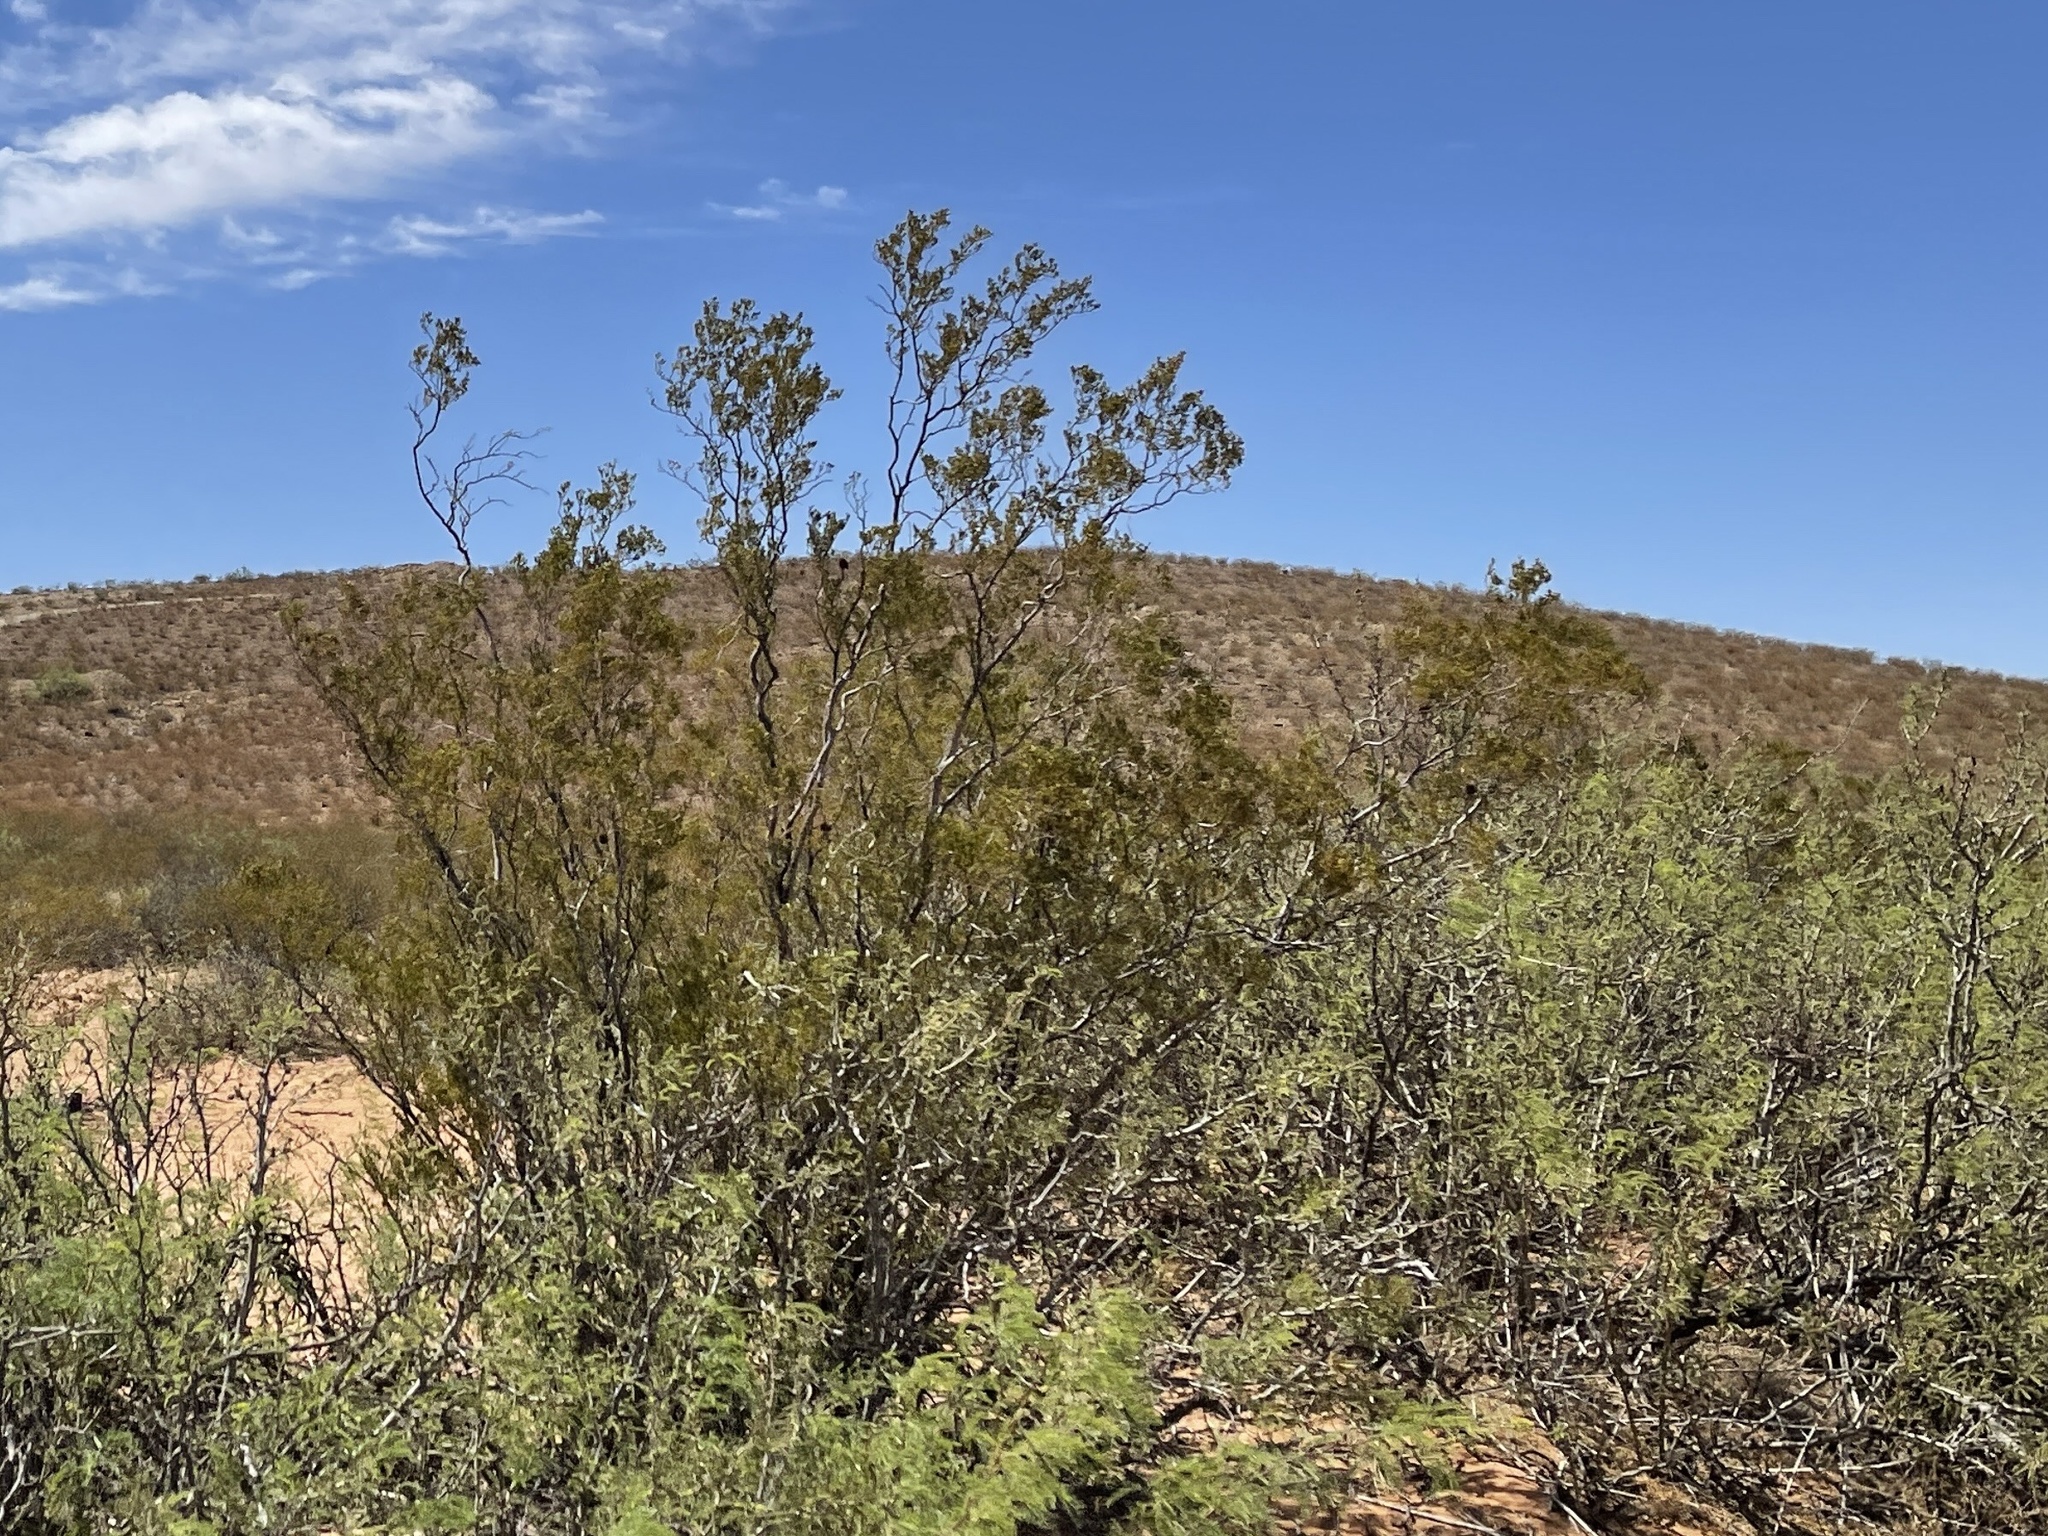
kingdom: Plantae
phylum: Tracheophyta
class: Magnoliopsida
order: Zygophyllales
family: Zygophyllaceae
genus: Larrea
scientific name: Larrea tridentata
